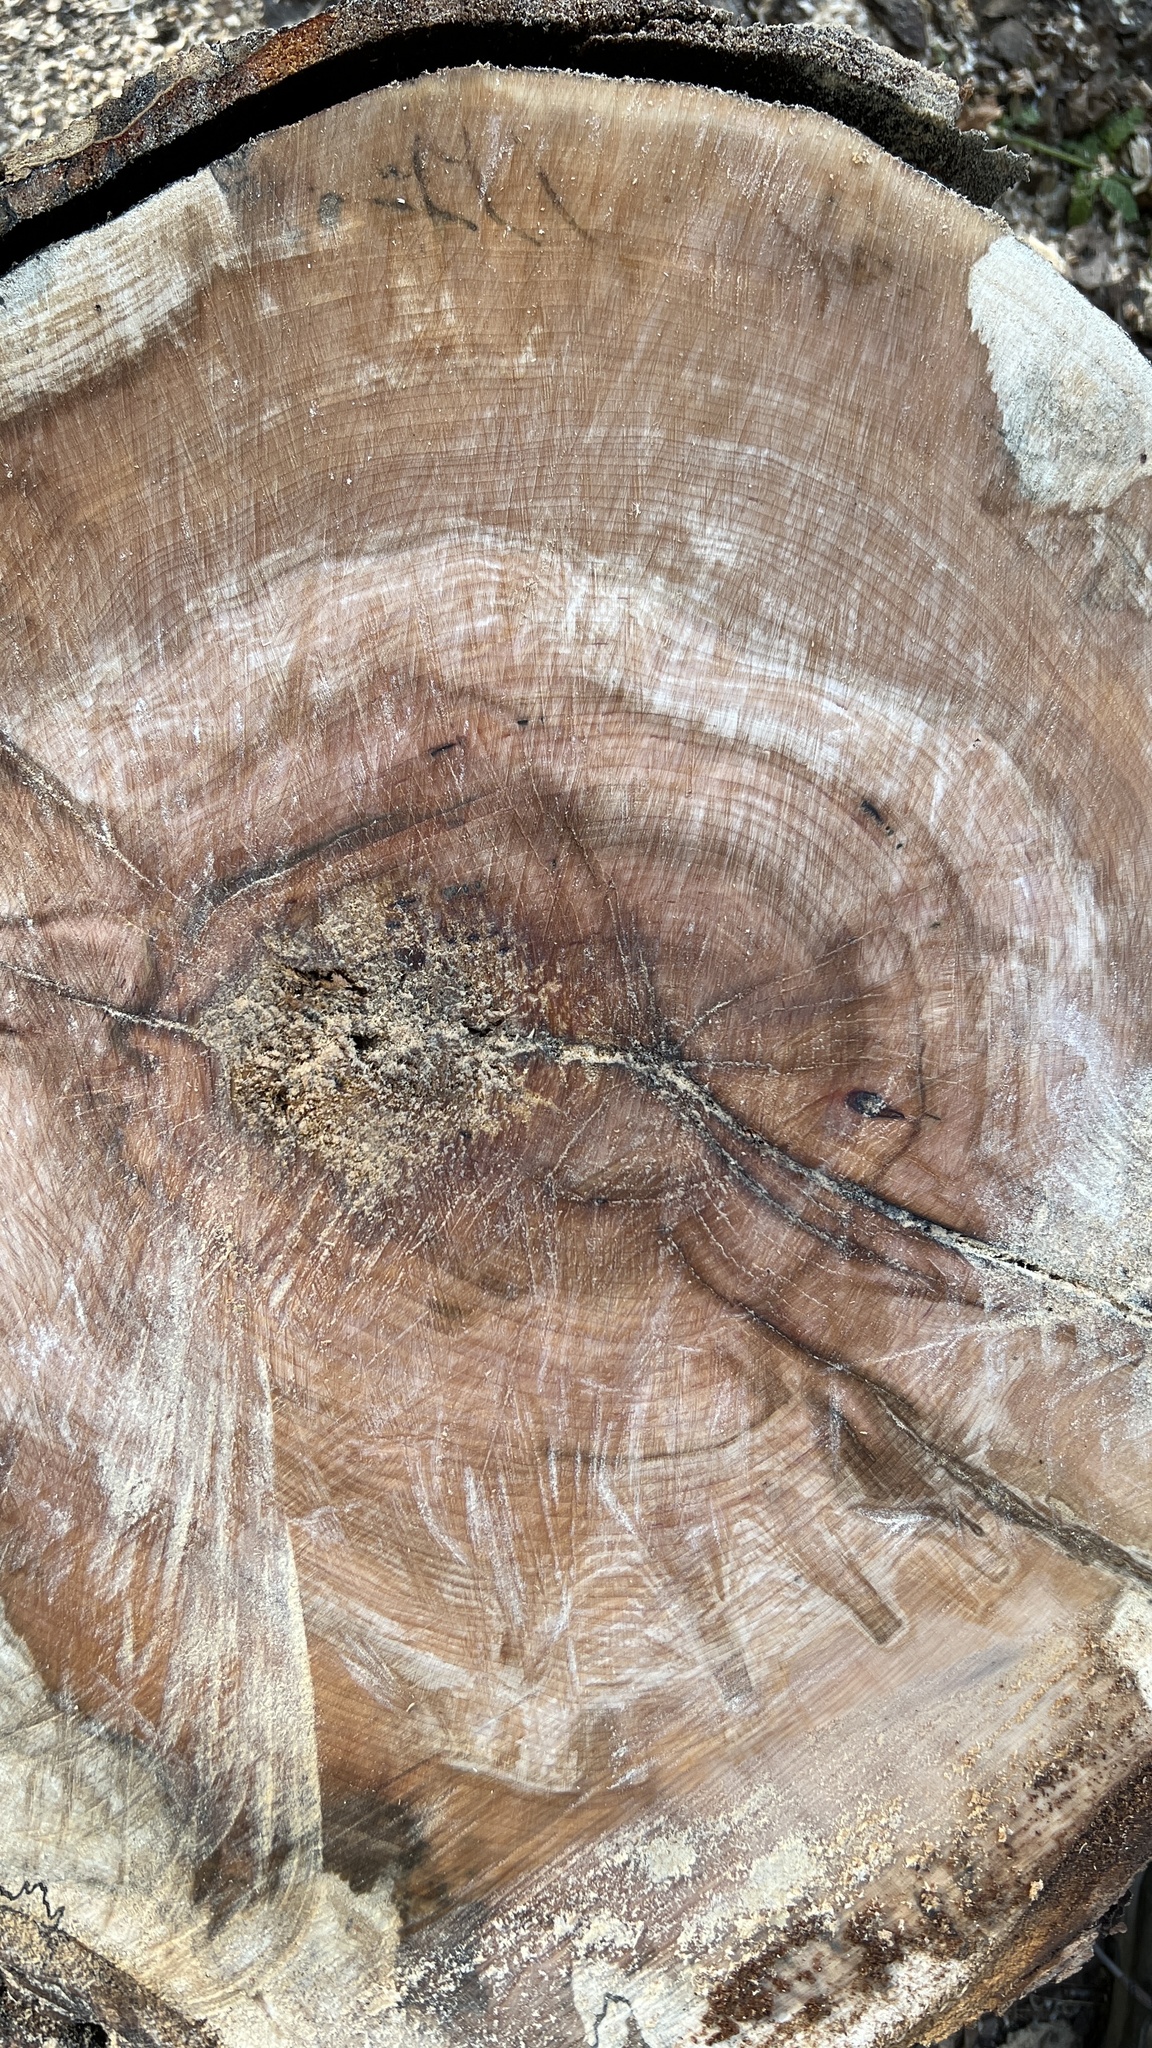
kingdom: Plantae
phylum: Tracheophyta
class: Magnoliopsida
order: Sapindales
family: Sapindaceae
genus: Acer
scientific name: Acer saccharum
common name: Sugar maple
